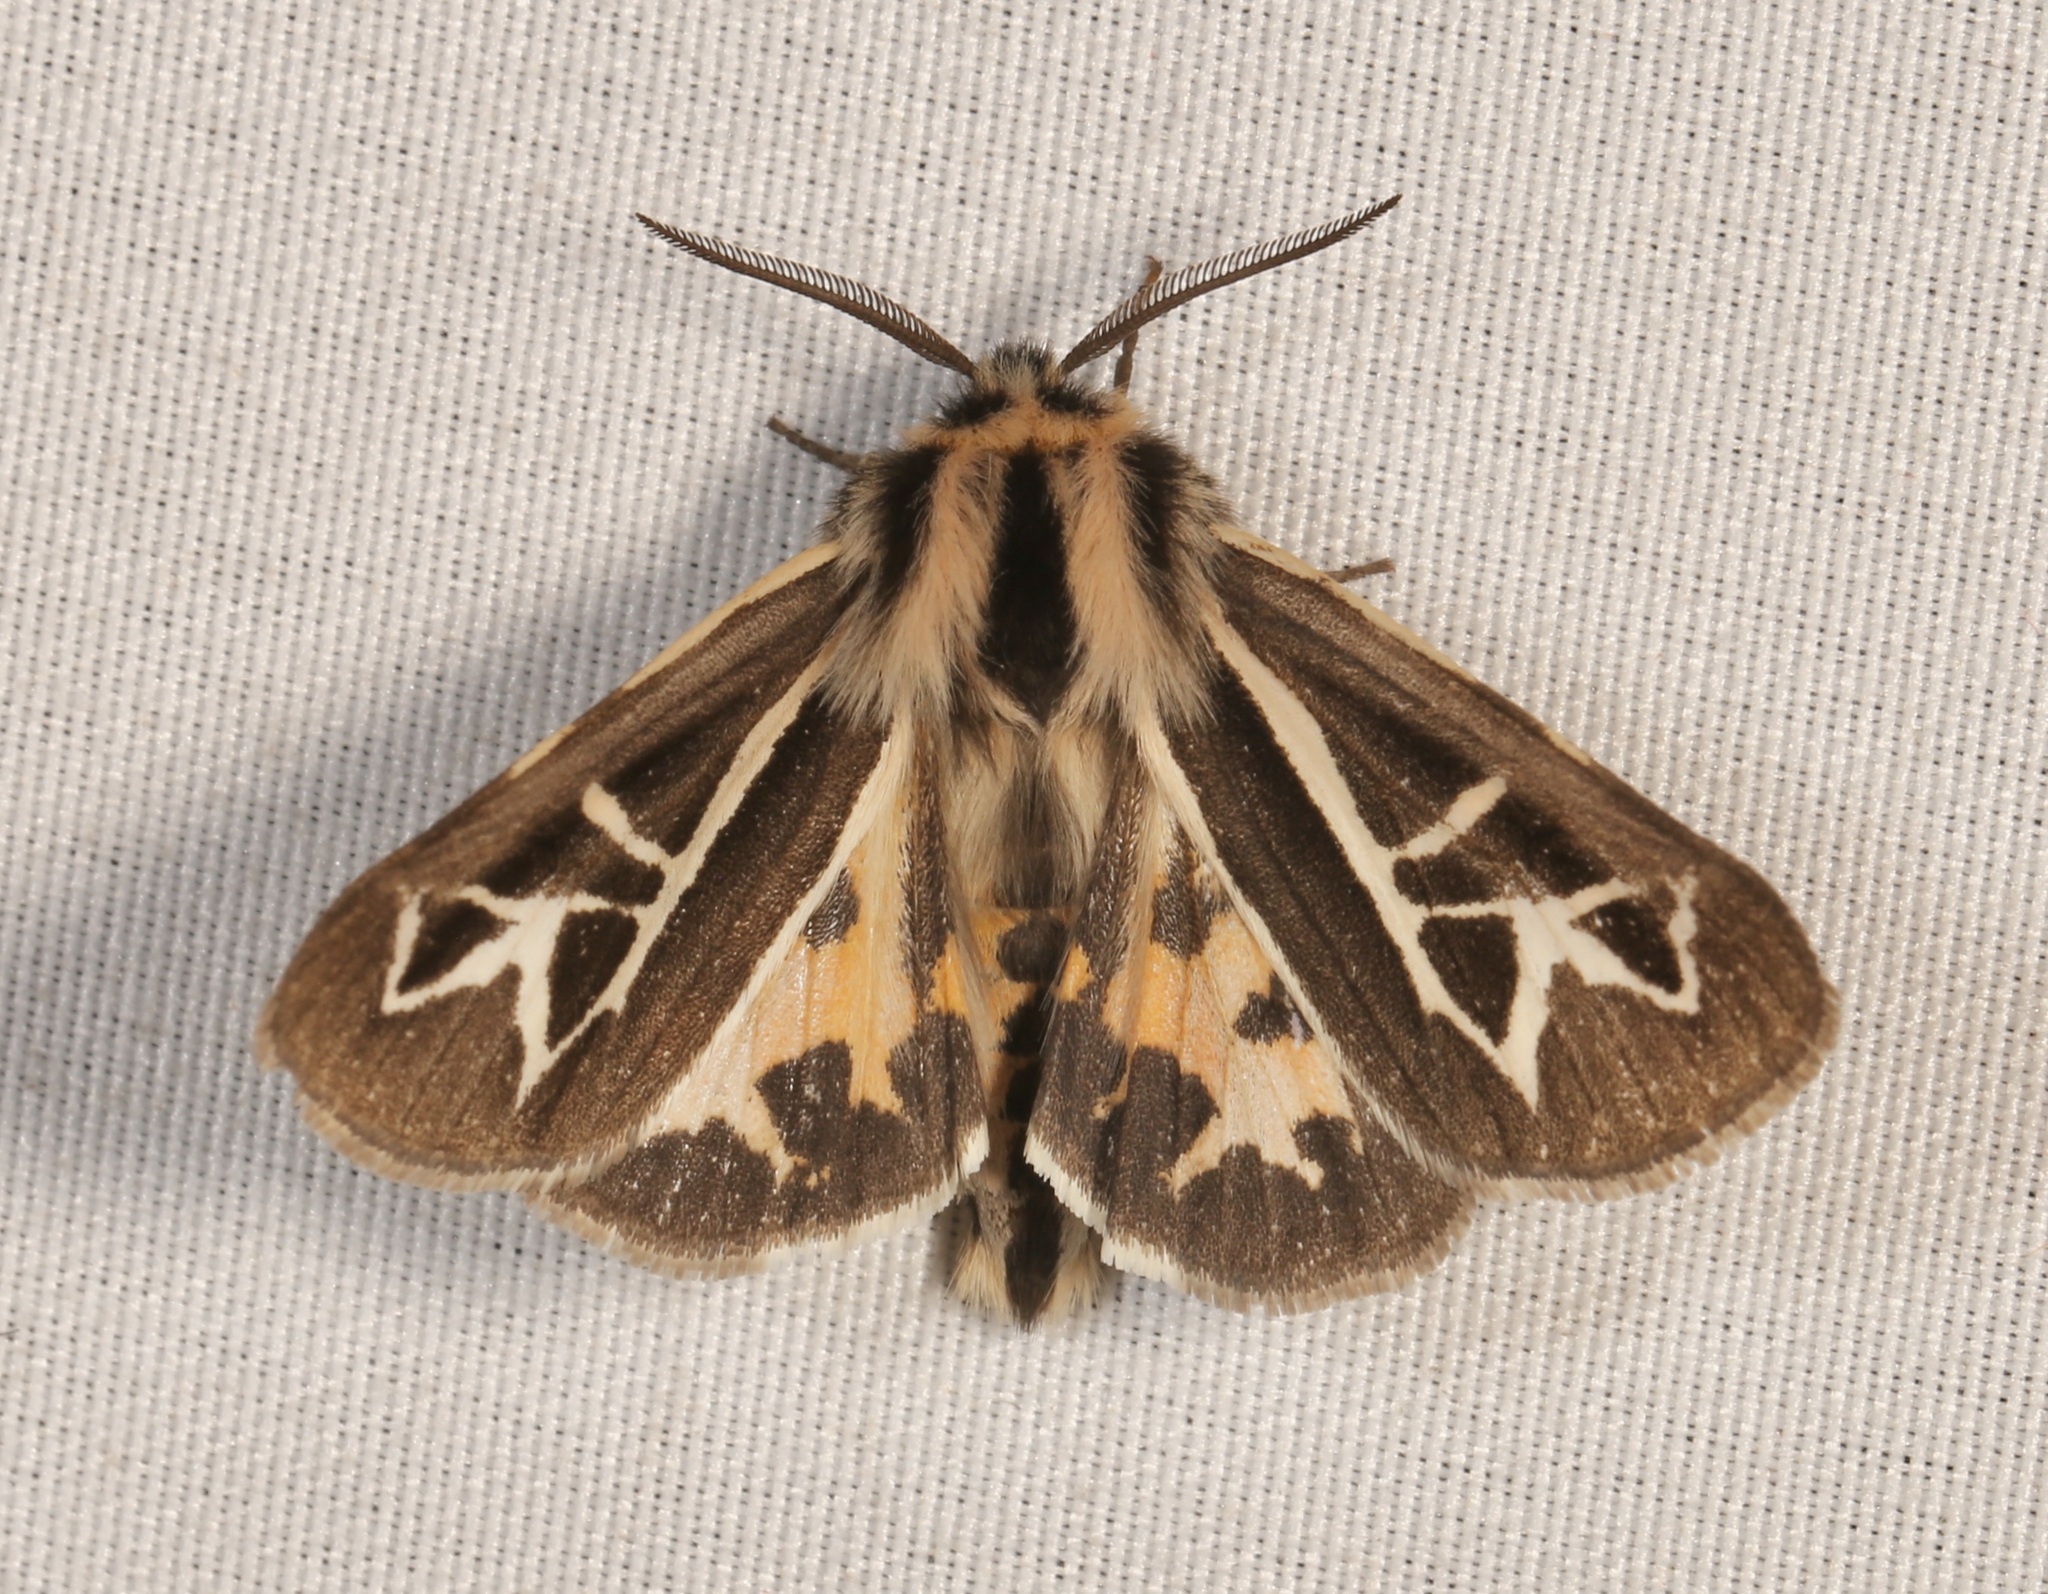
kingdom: Animalia
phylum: Arthropoda
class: Insecta
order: Lepidoptera
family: Erebidae
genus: Apantesis
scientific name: Apantesis
